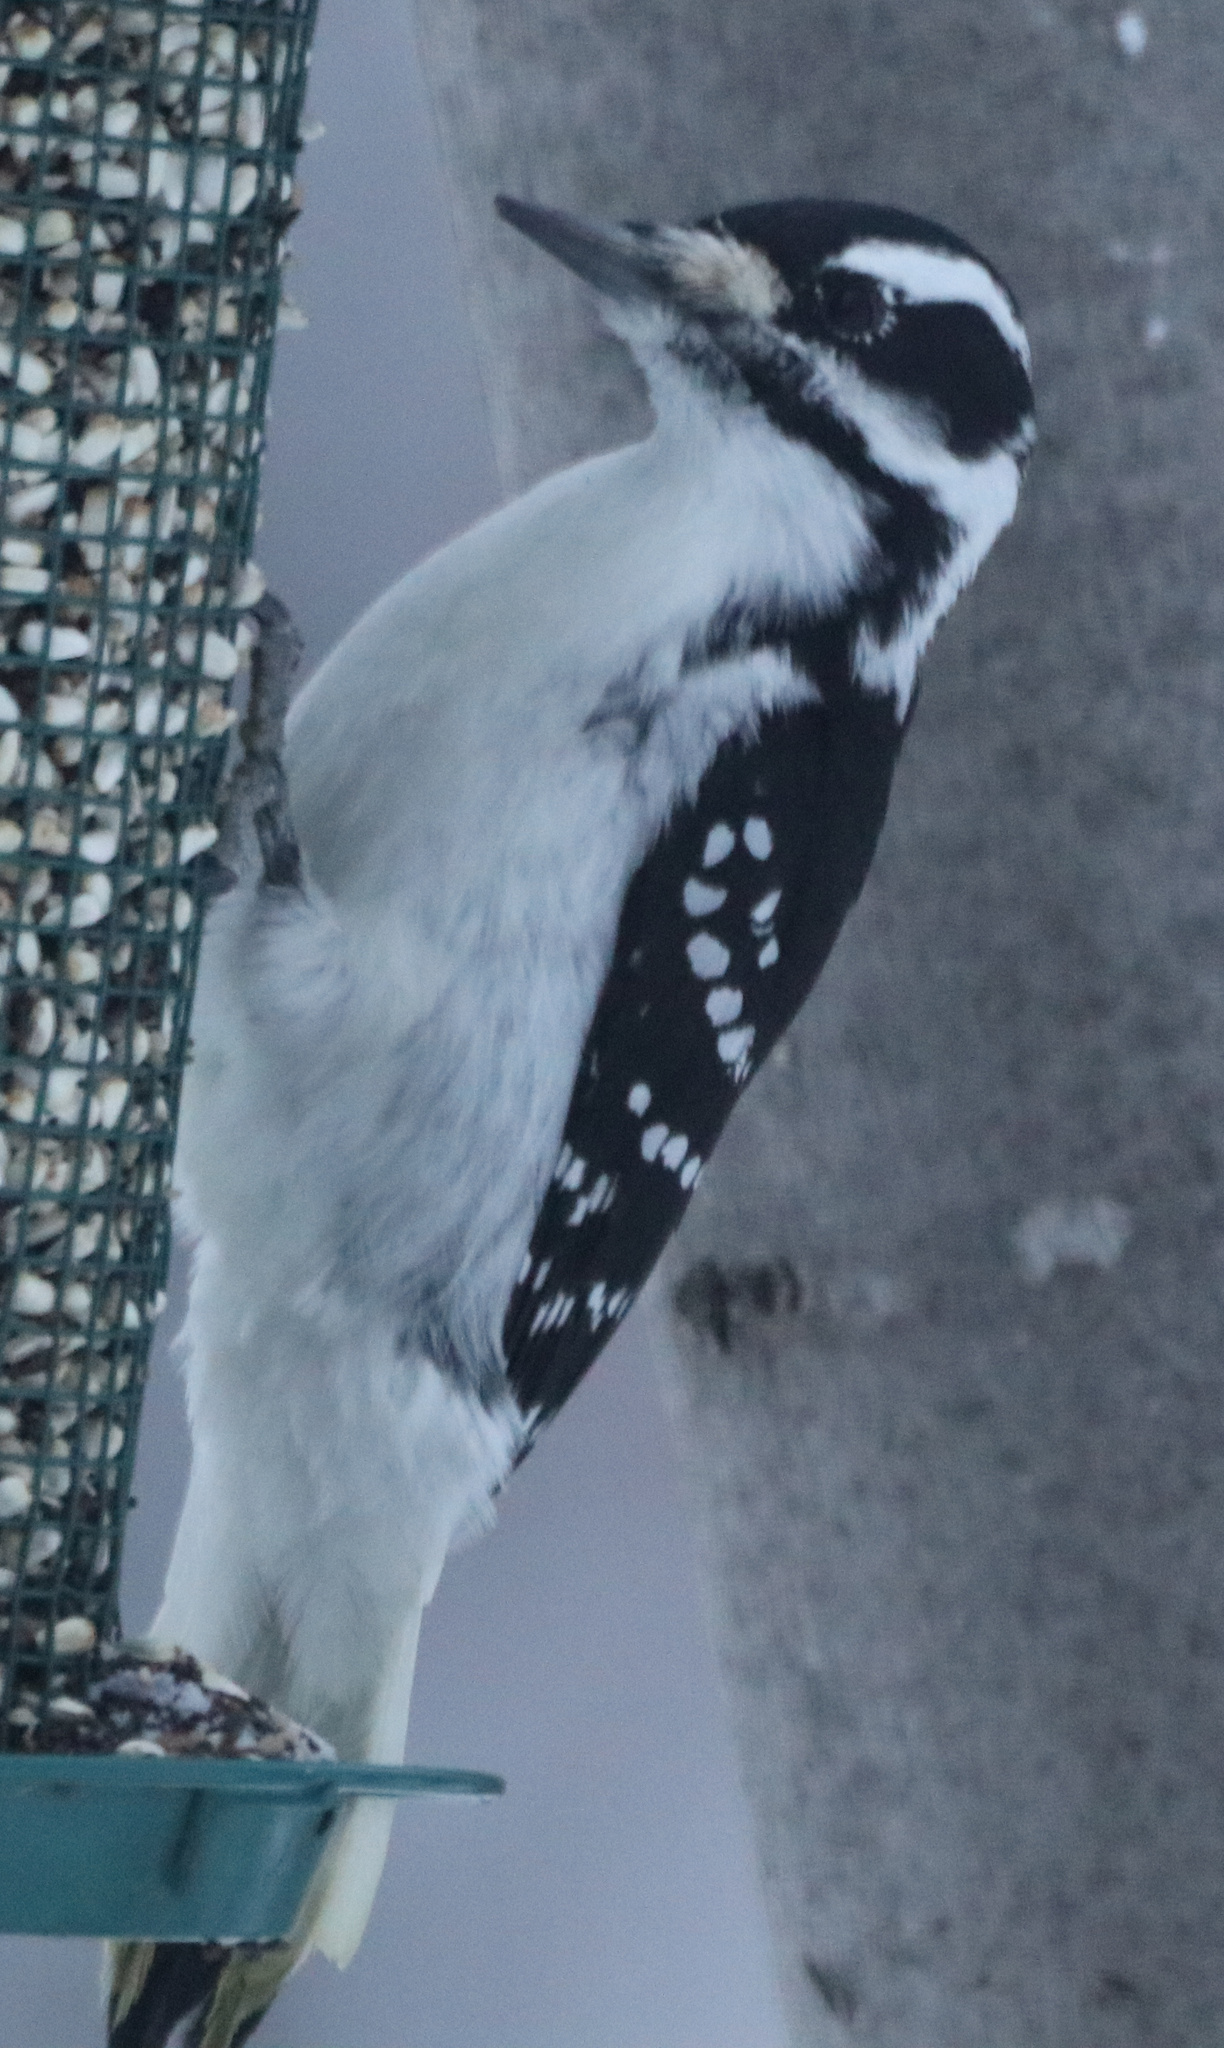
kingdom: Animalia
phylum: Chordata
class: Aves
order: Piciformes
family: Picidae
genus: Leuconotopicus
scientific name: Leuconotopicus villosus
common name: Hairy woodpecker
